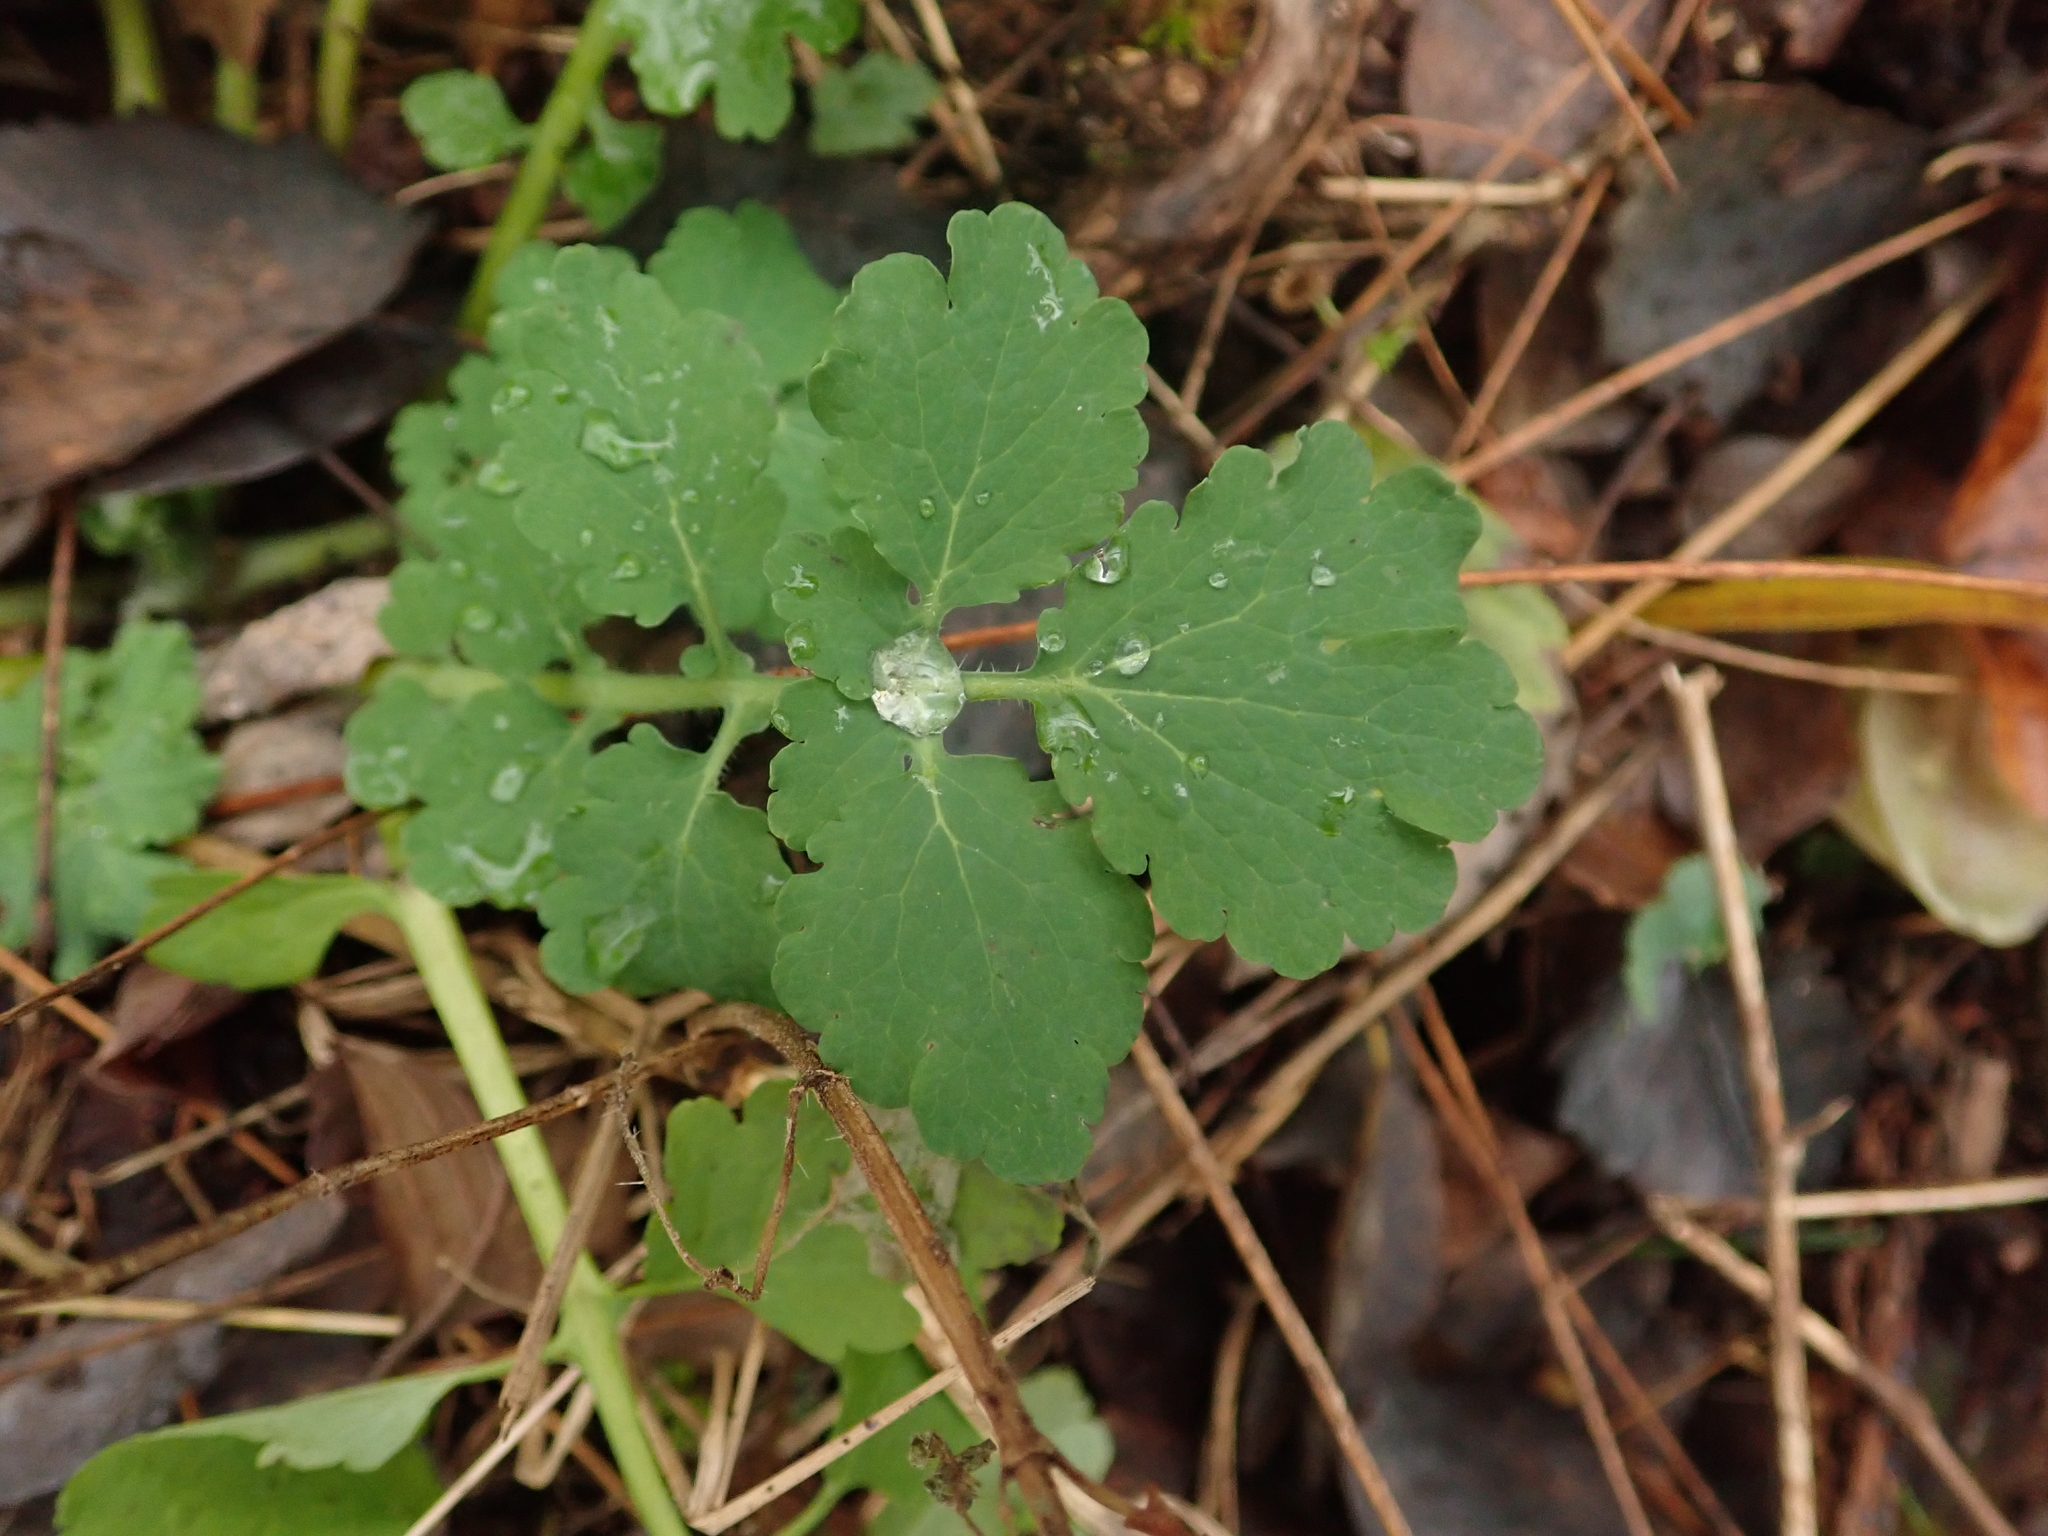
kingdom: Plantae
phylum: Tracheophyta
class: Magnoliopsida
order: Ranunculales
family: Papaveraceae
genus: Chelidonium
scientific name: Chelidonium majus
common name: Greater celandine
